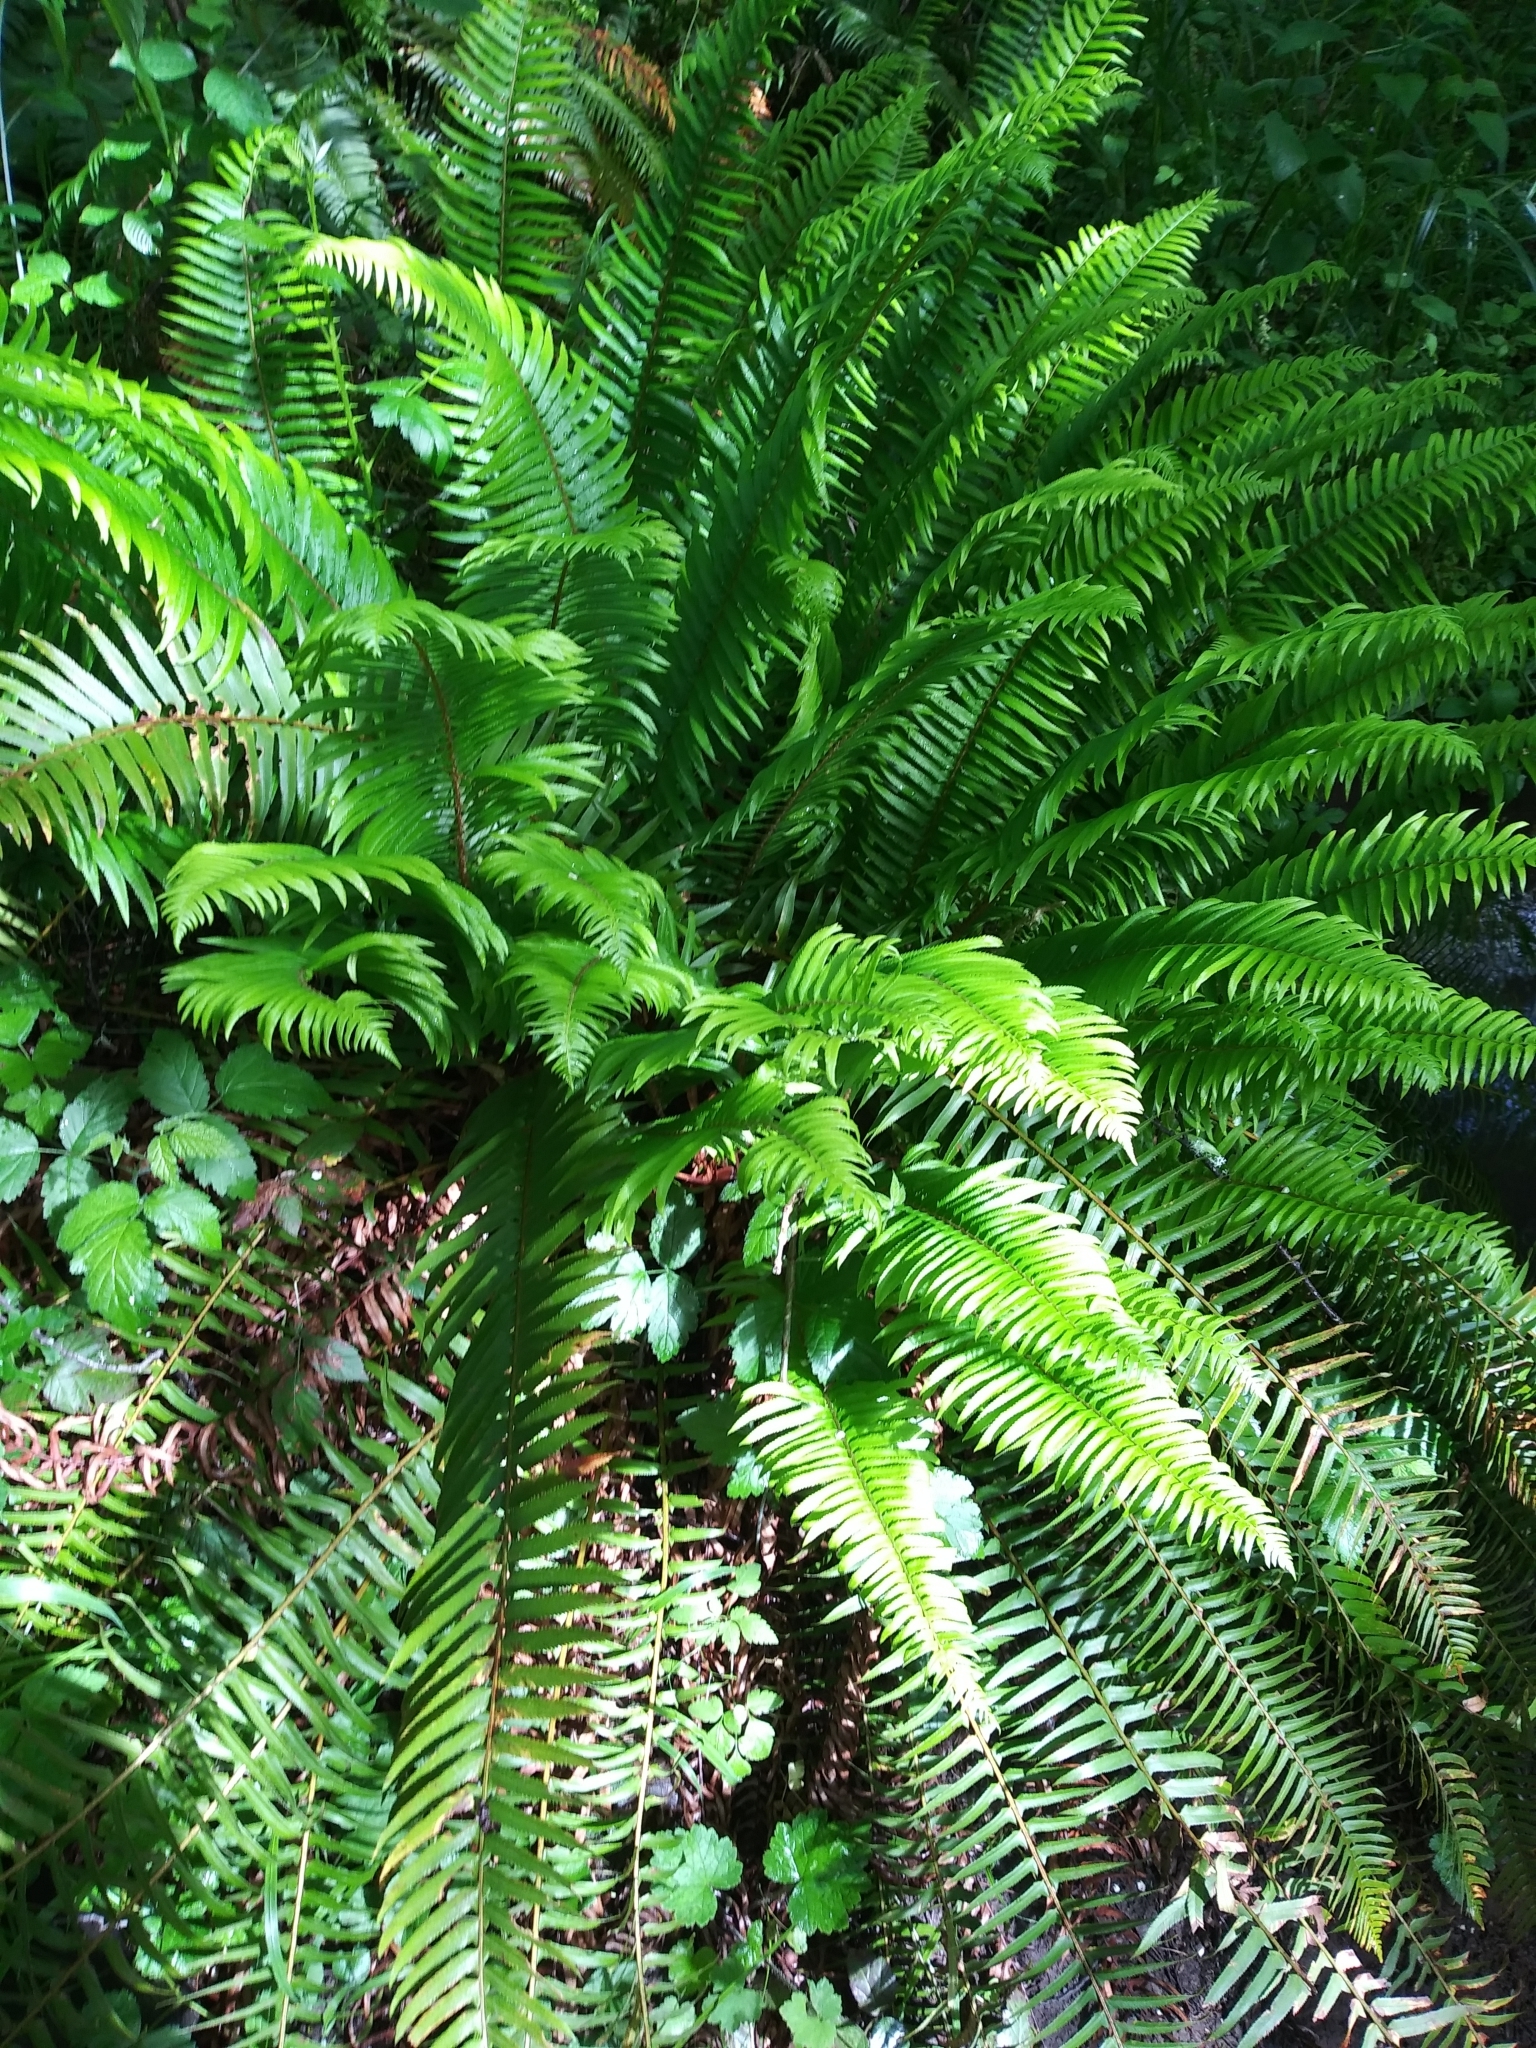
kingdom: Plantae
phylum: Tracheophyta
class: Polypodiopsida
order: Polypodiales
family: Dryopteridaceae
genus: Polystichum
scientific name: Polystichum munitum
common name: Western sword-fern
